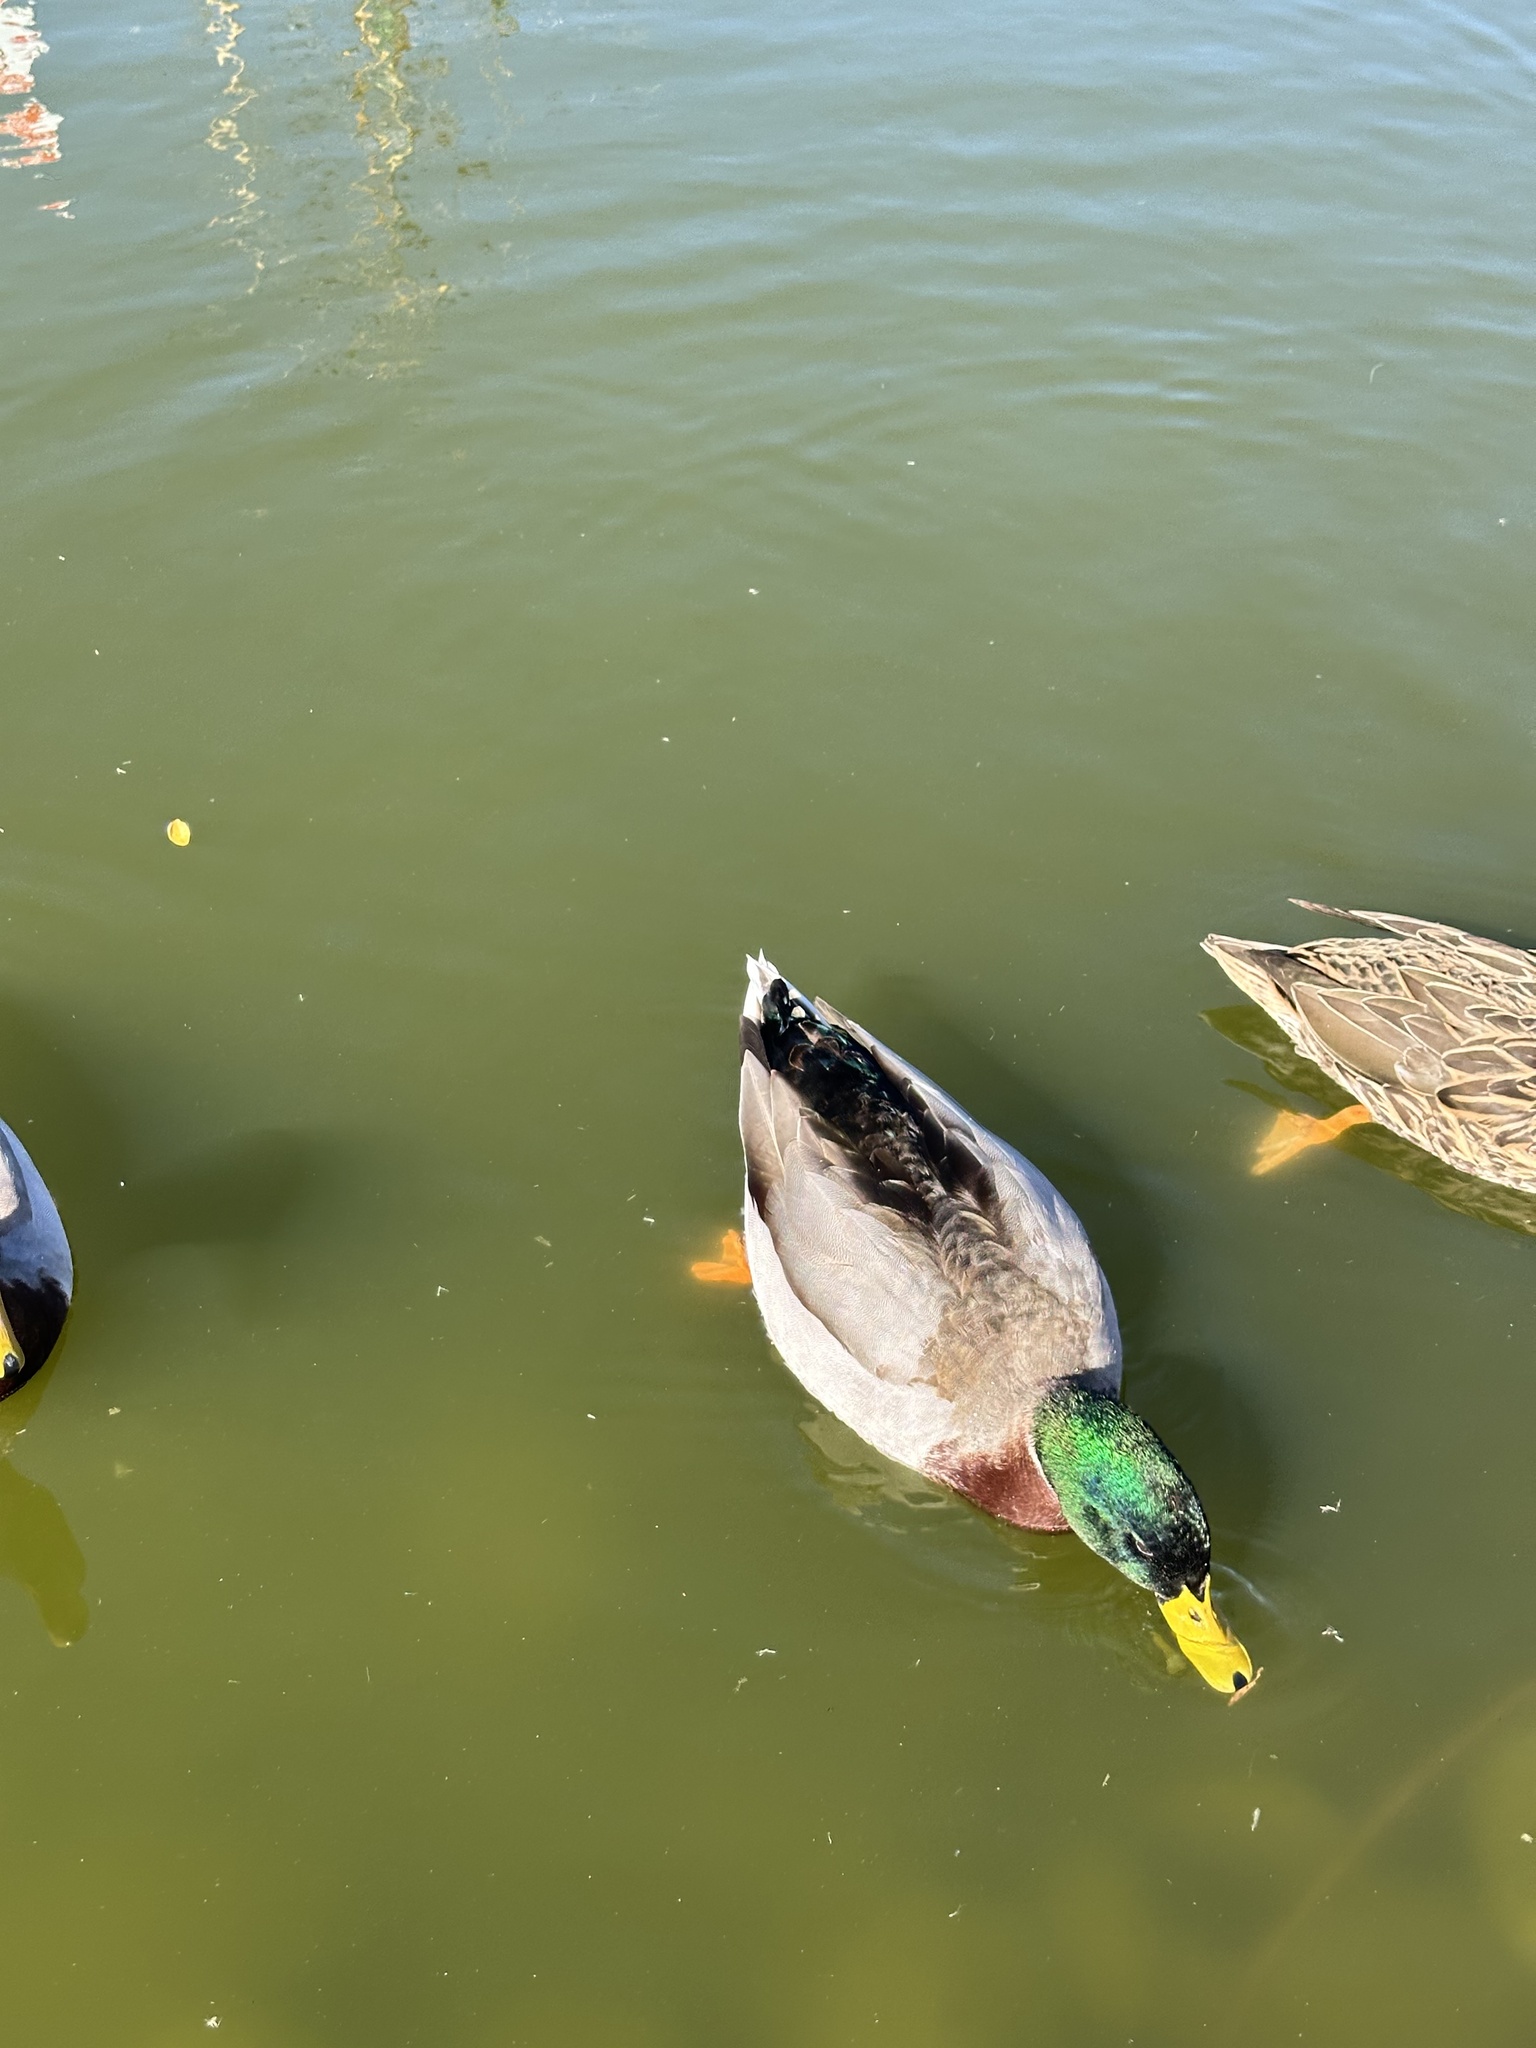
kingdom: Animalia
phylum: Chordata
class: Aves
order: Anseriformes
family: Anatidae
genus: Anas
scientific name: Anas platyrhynchos
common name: Mallard
